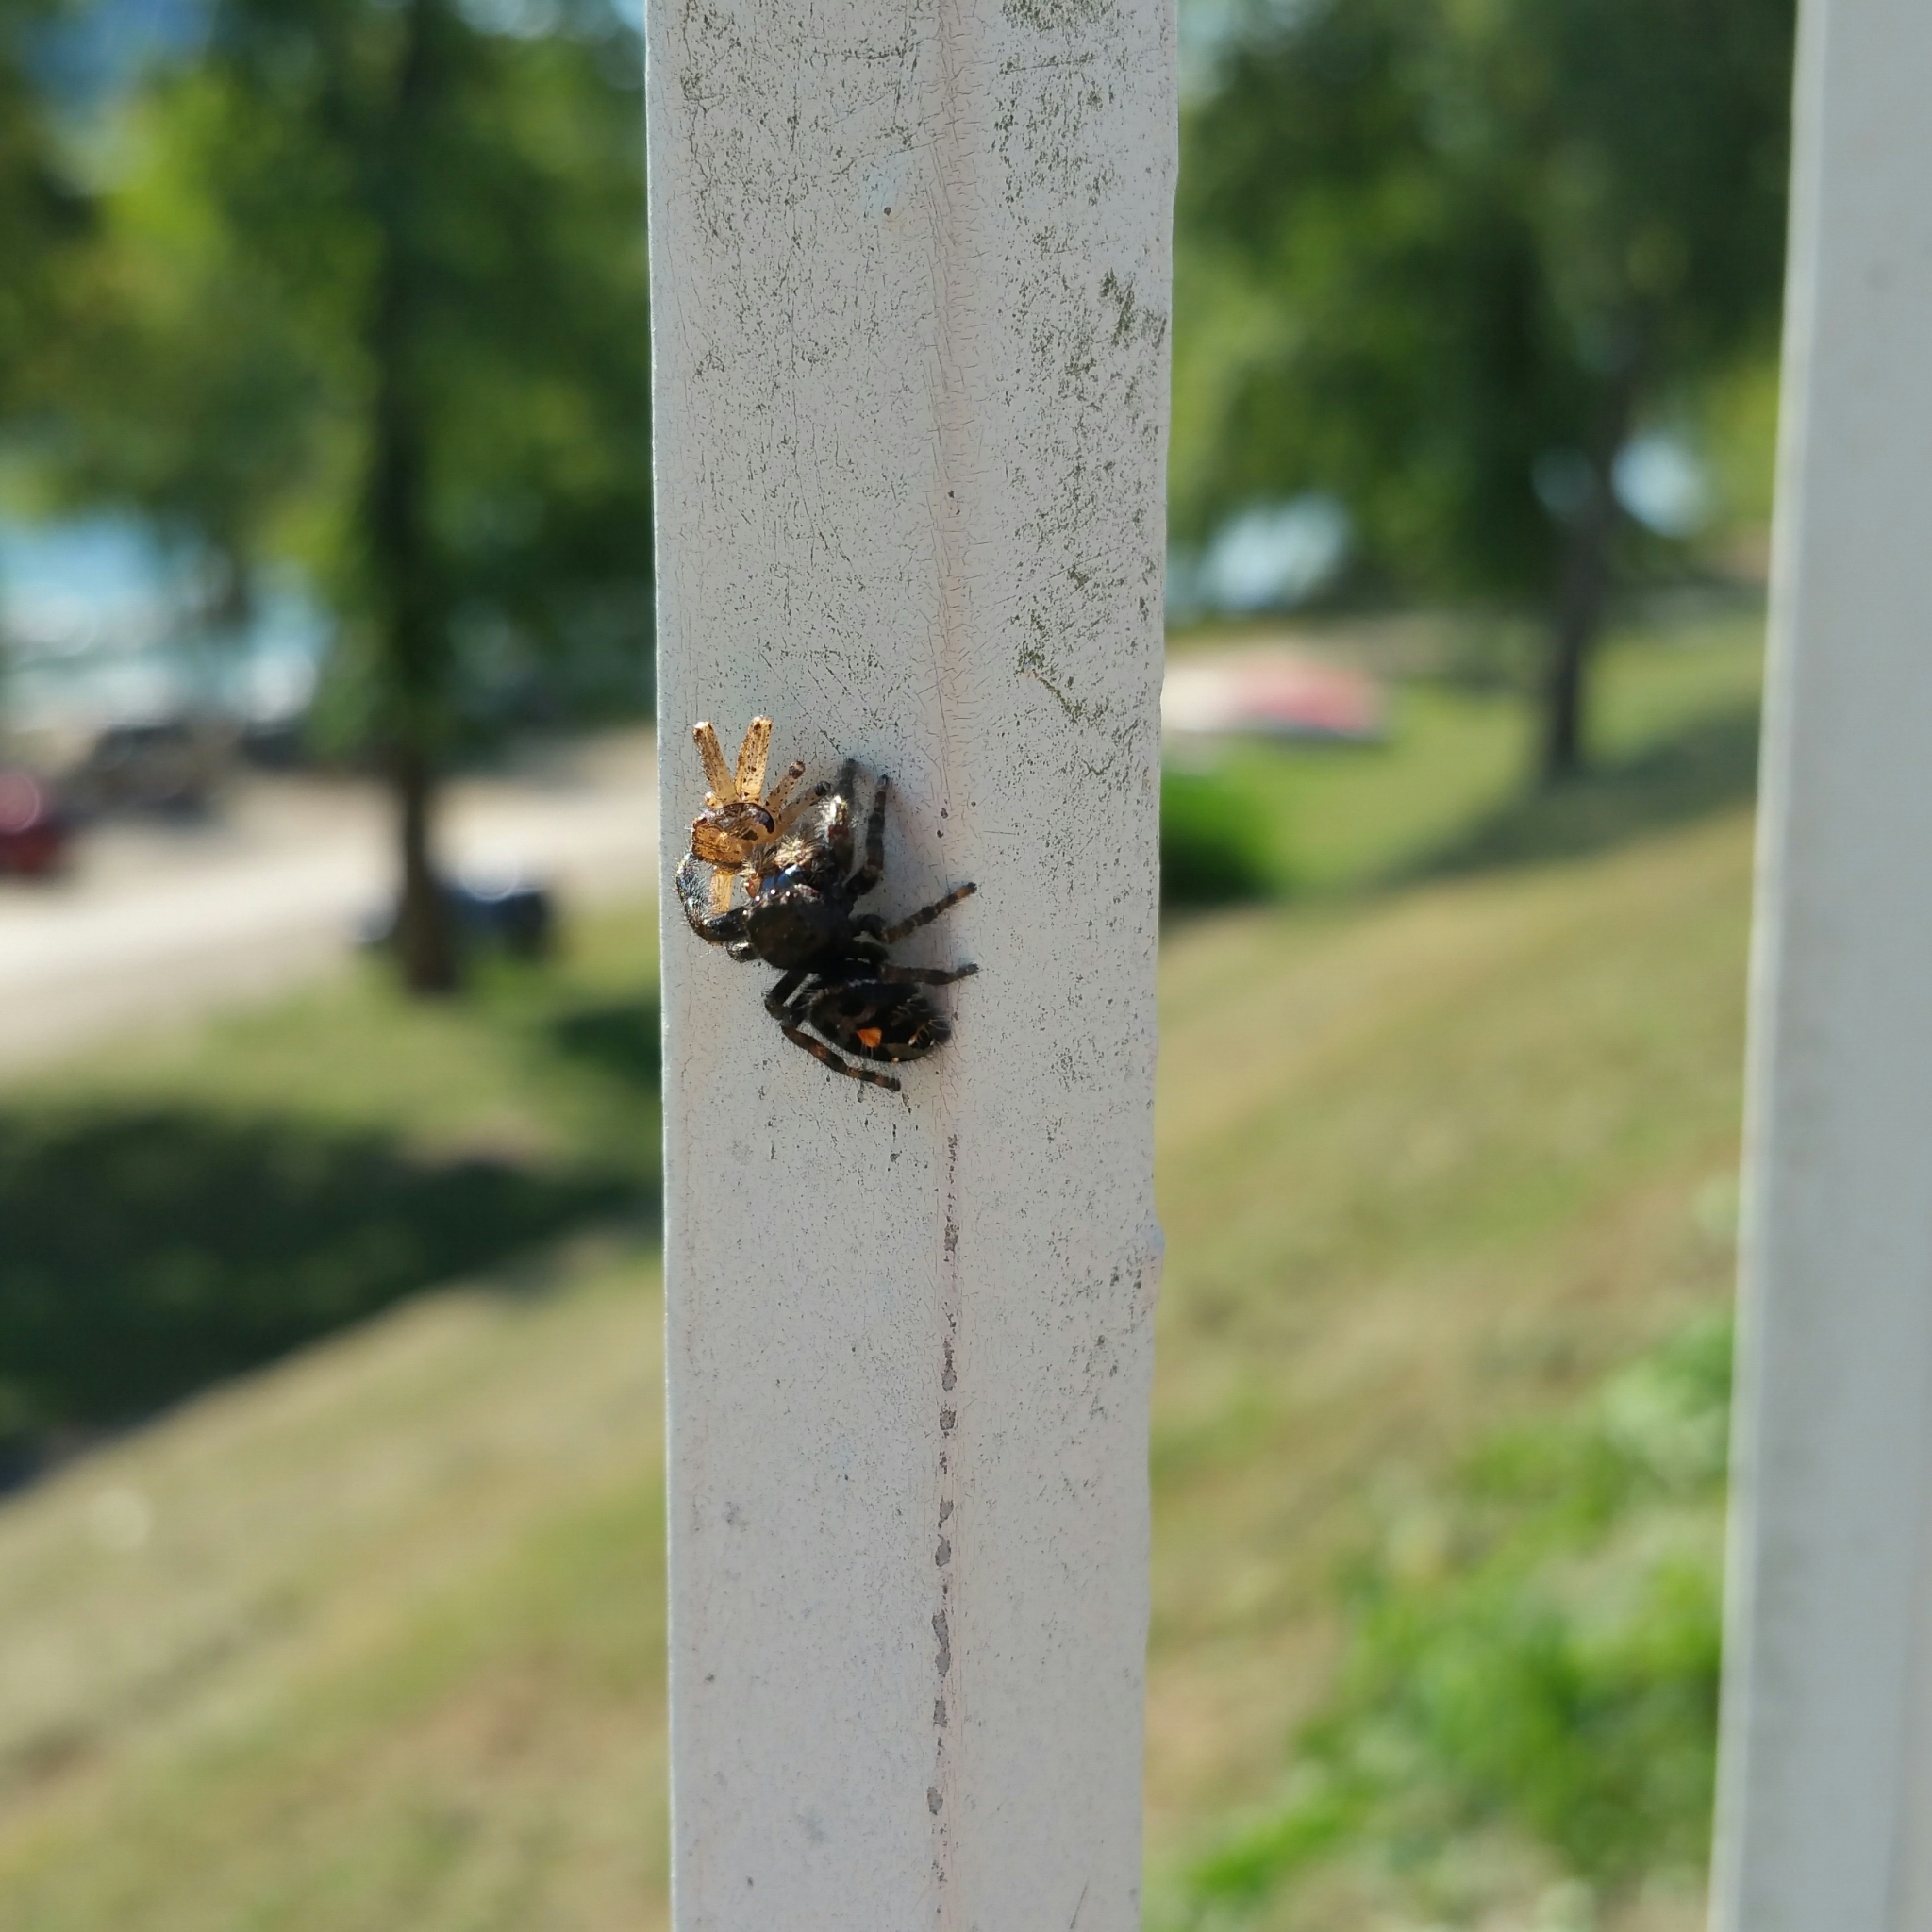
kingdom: Animalia
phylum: Arthropoda
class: Arachnida
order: Araneae
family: Salticidae
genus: Phidippus
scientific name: Phidippus audax
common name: Bold jumper
